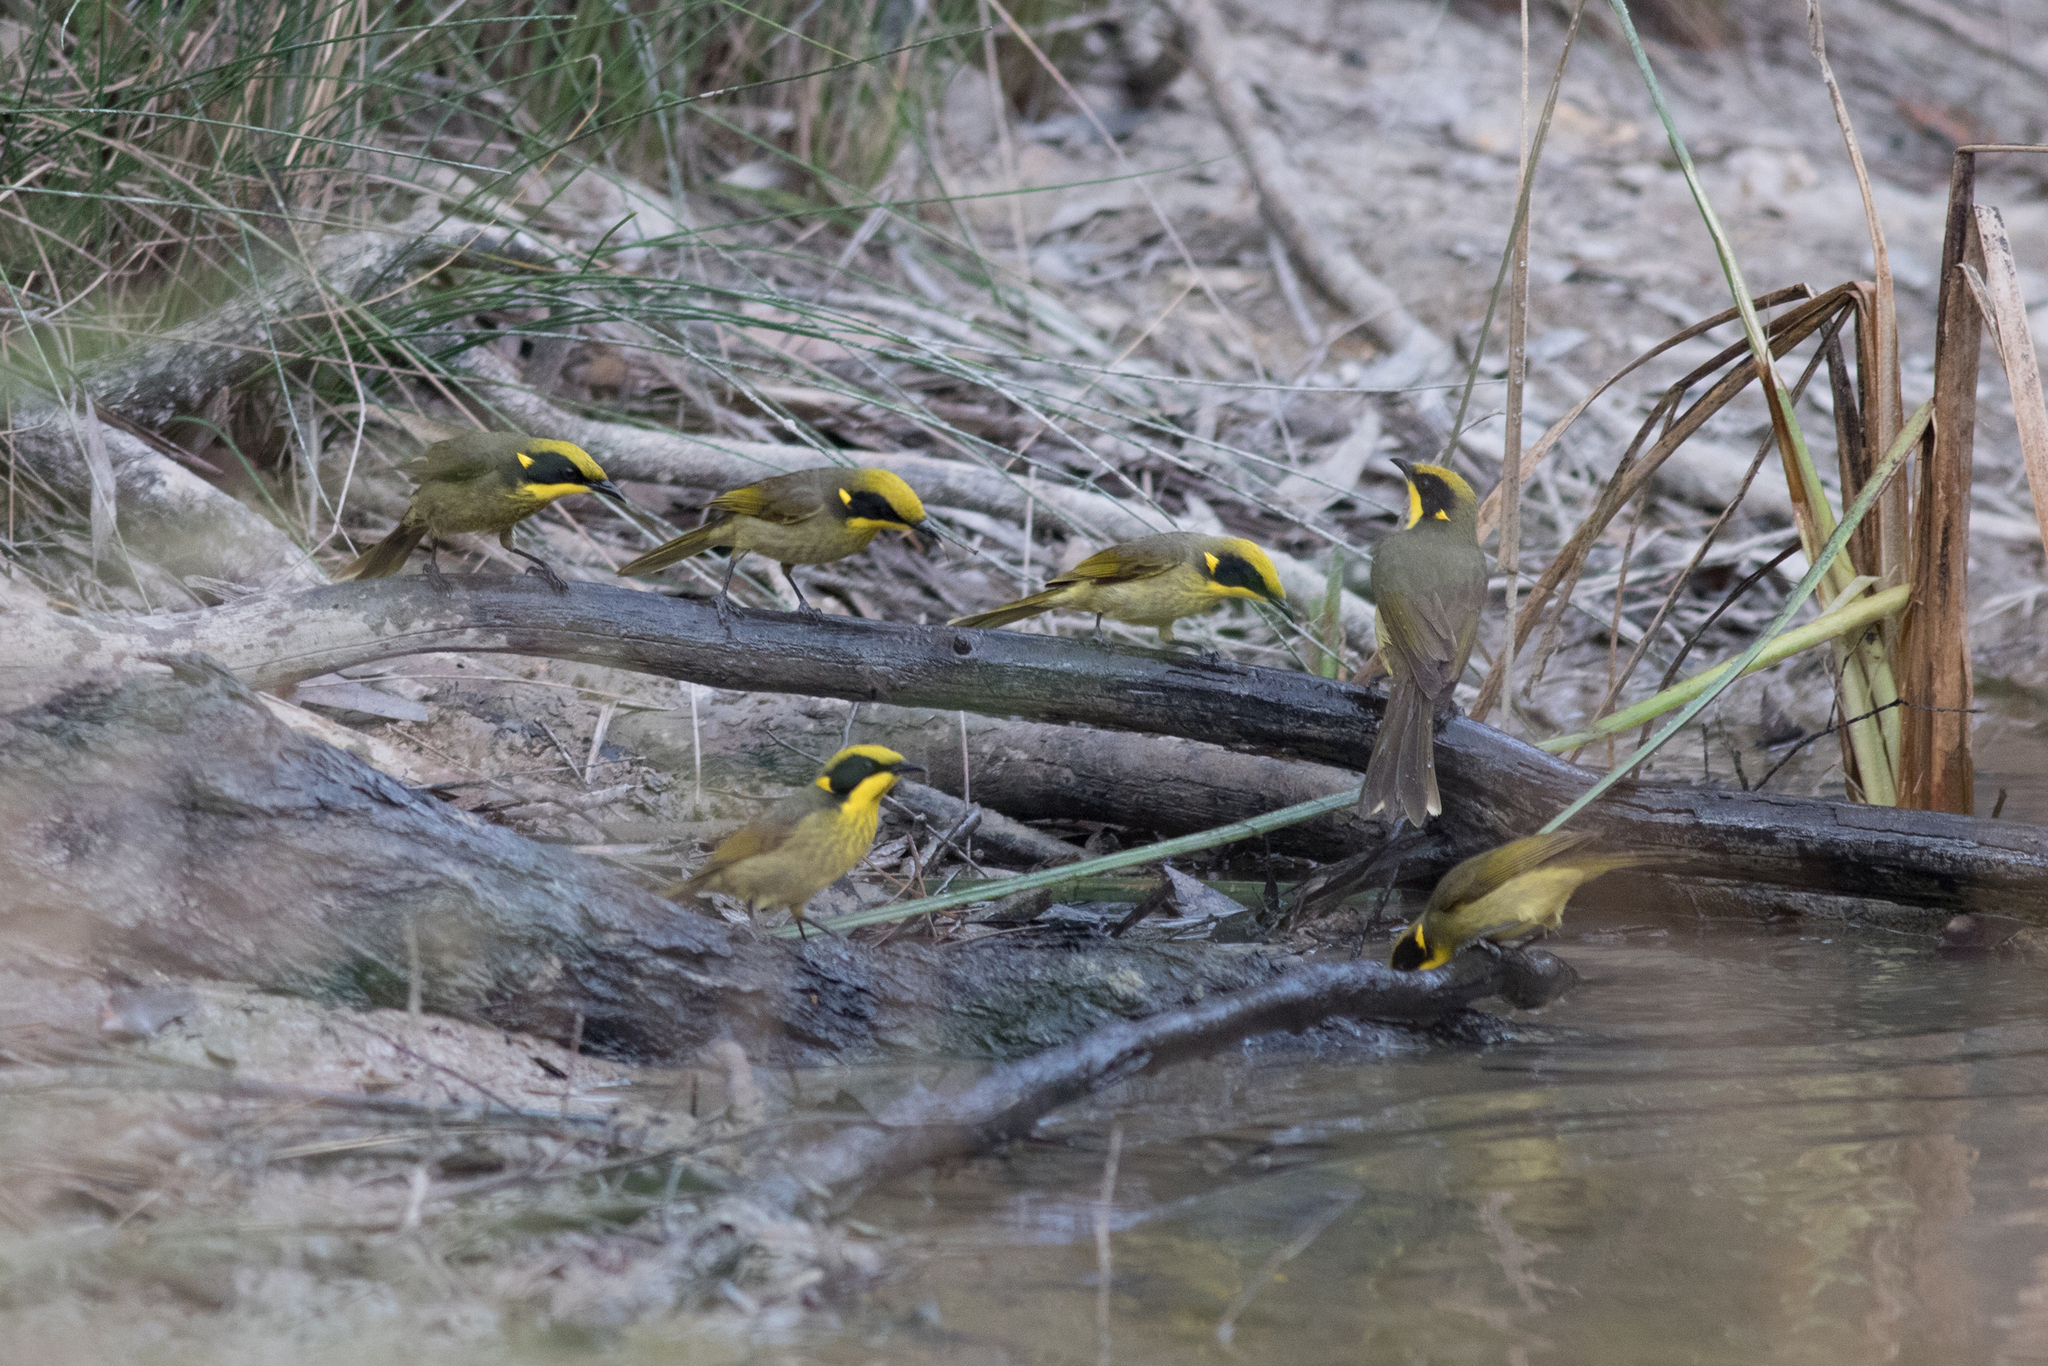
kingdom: Animalia
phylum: Chordata
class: Aves
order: Passeriformes
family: Meliphagidae
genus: Lichenostomus
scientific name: Lichenostomus melanops
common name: Yellow-tufted honeyeater
